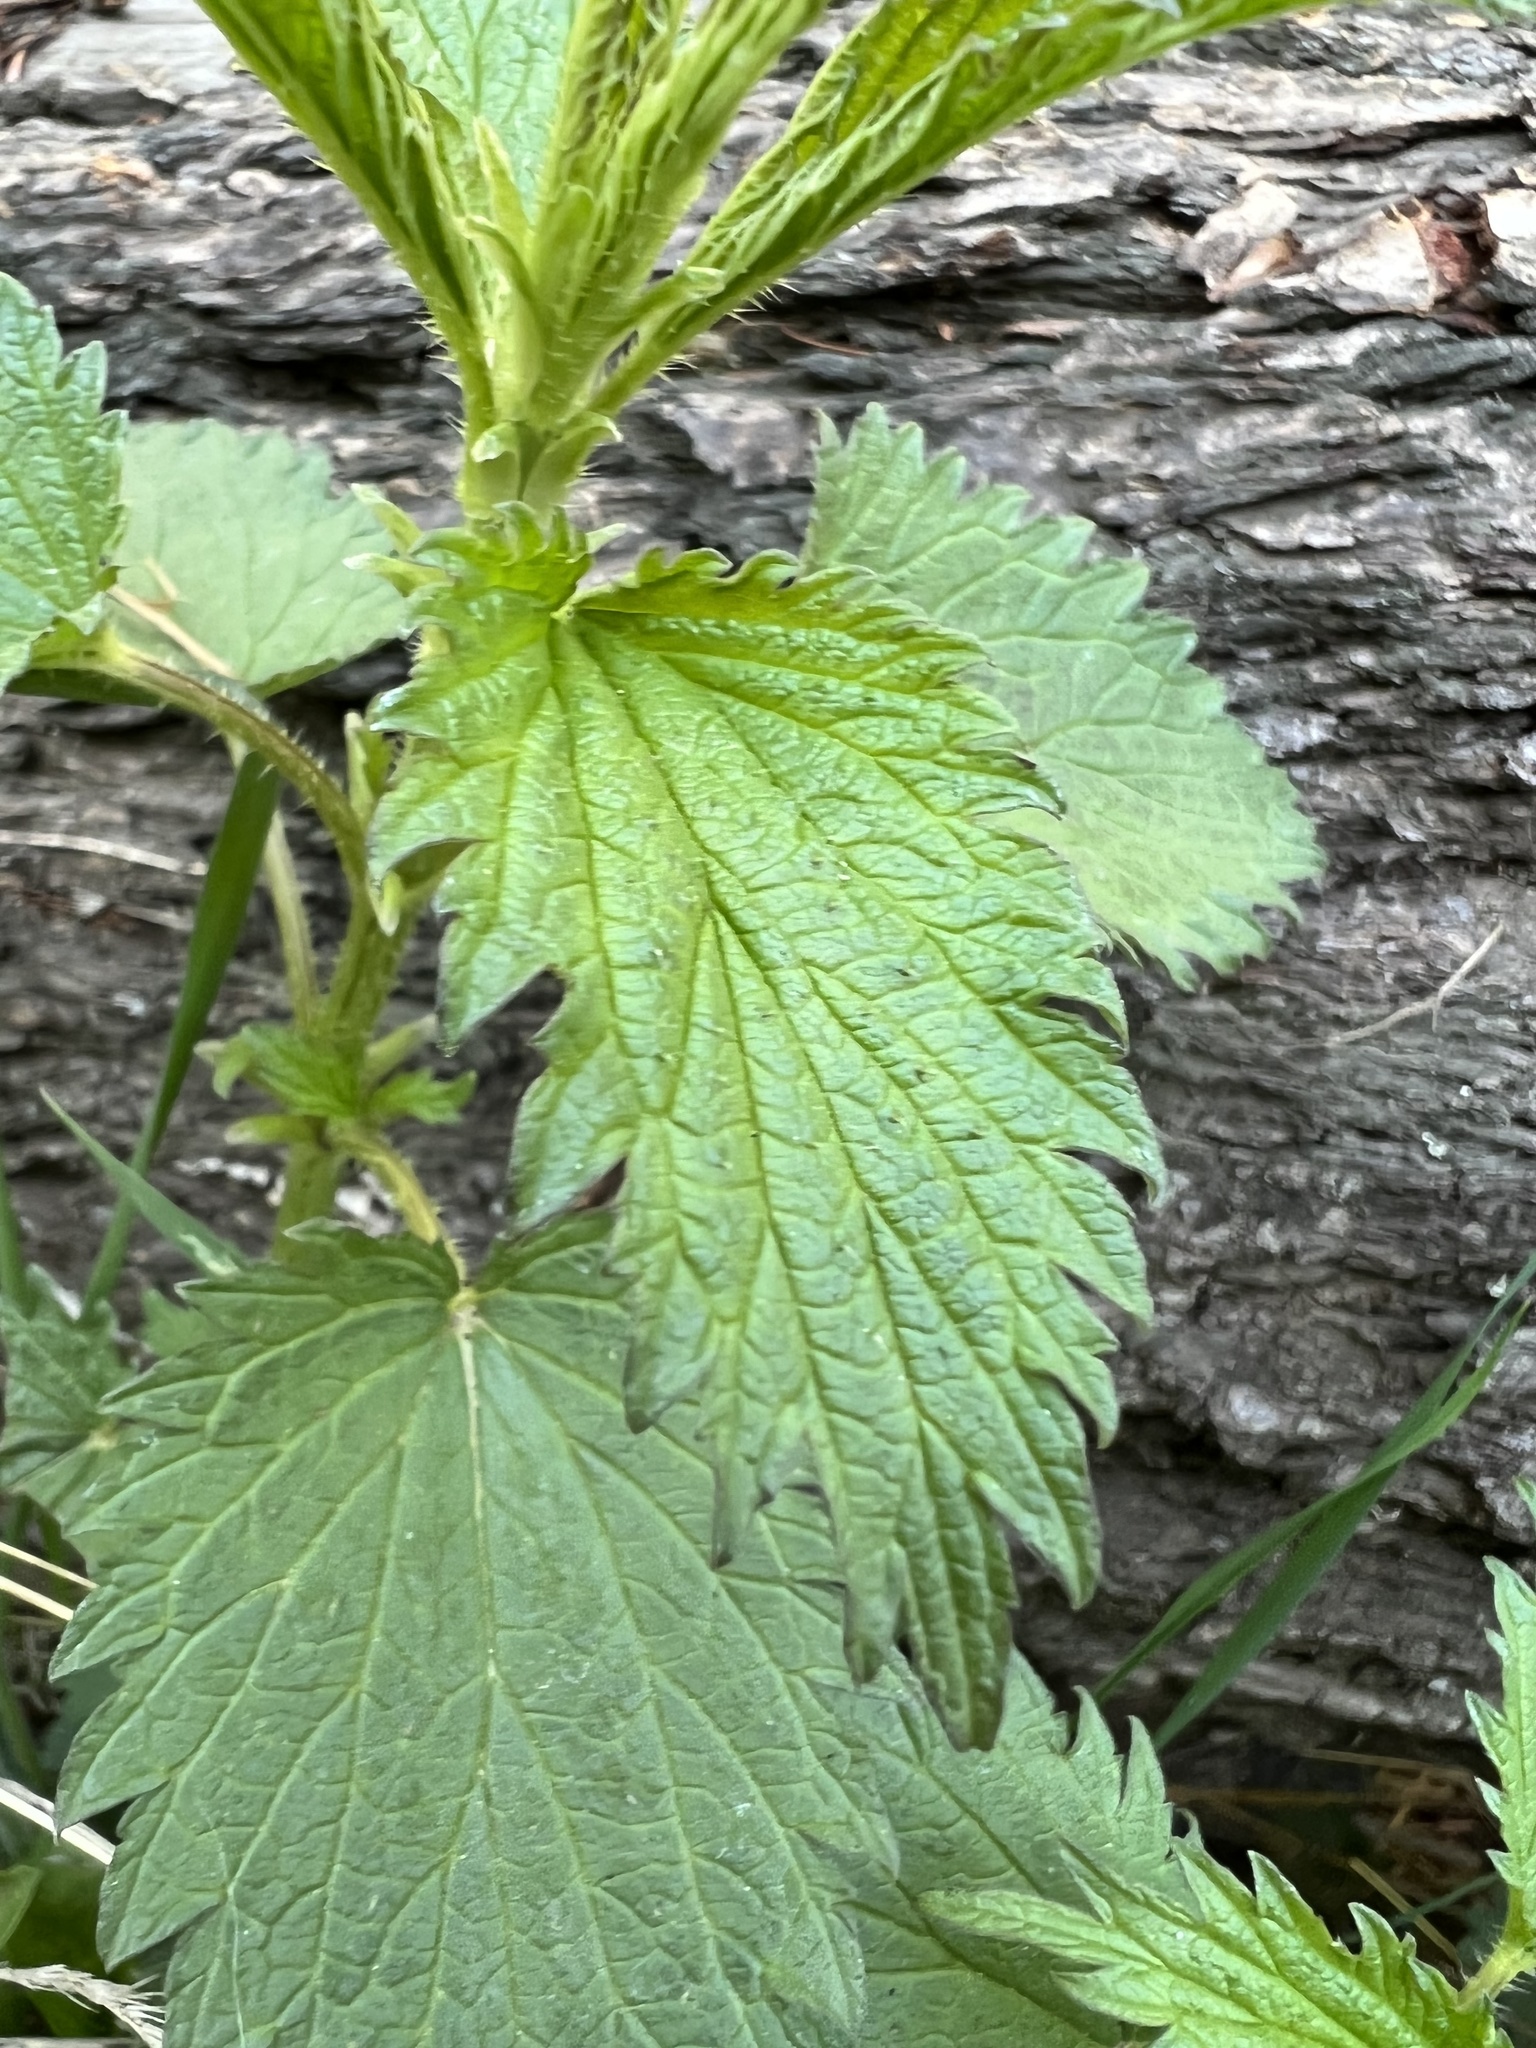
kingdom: Plantae
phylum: Tracheophyta
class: Magnoliopsida
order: Rosales
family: Urticaceae
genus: Urtica
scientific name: Urtica dioica
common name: Common nettle
